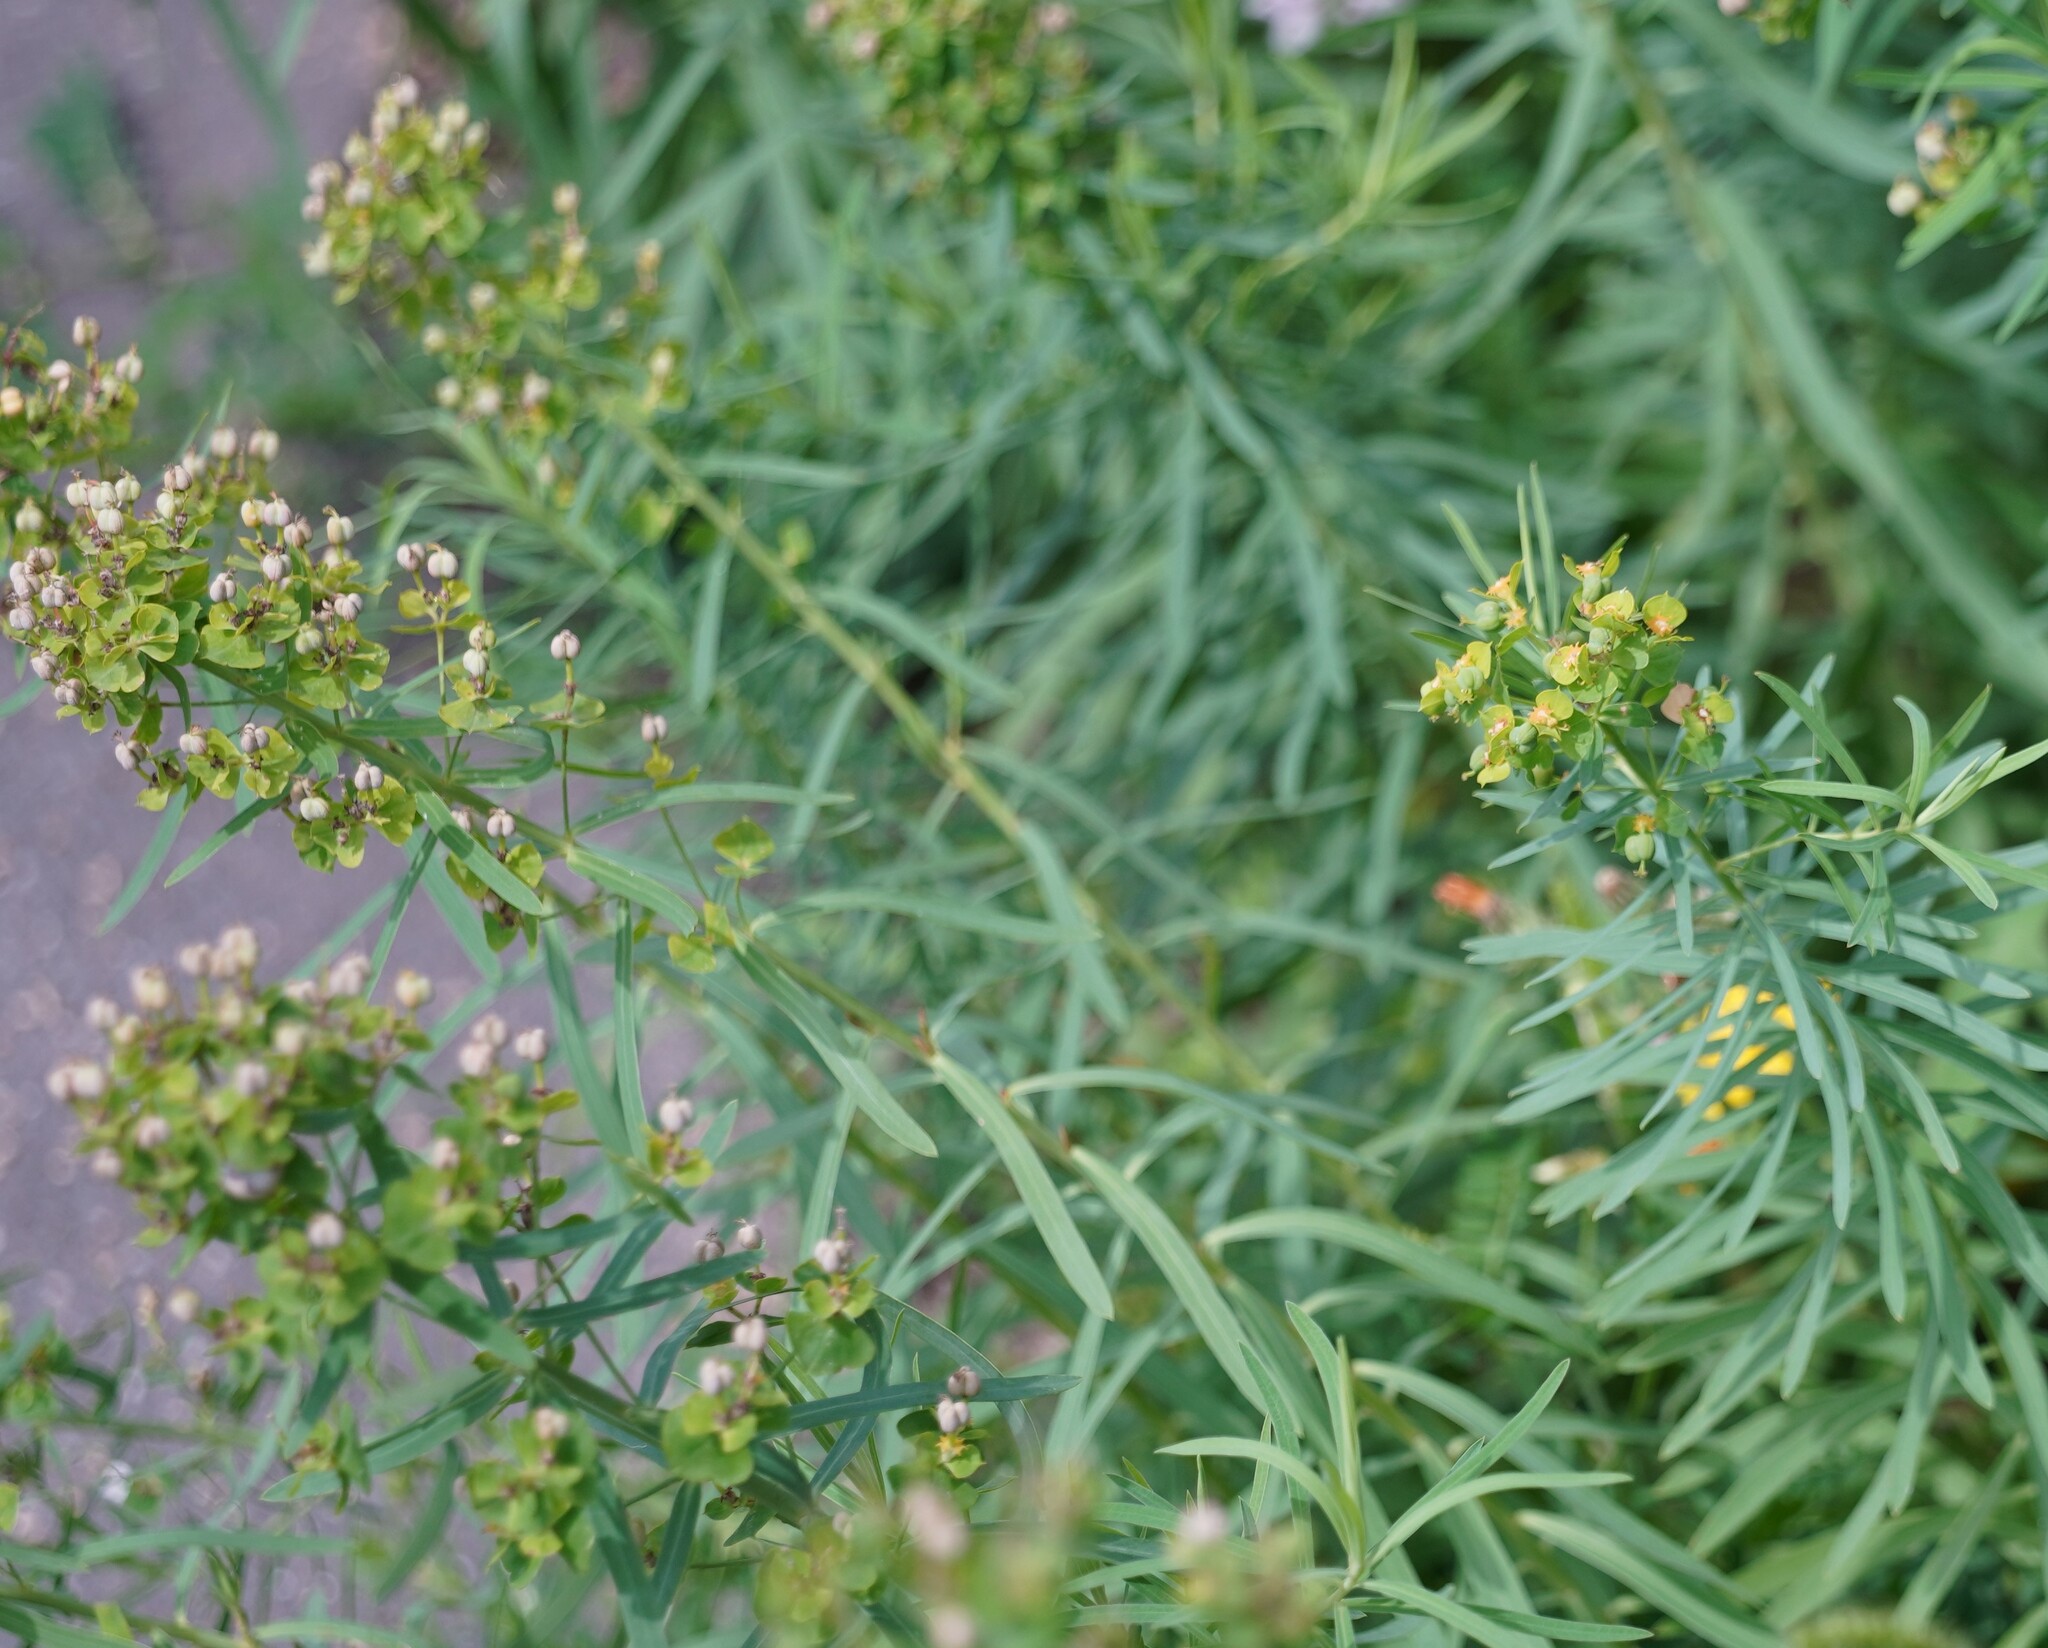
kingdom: Plantae
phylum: Tracheophyta
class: Magnoliopsida
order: Malpighiales
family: Euphorbiaceae
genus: Euphorbia
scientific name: Euphorbia esula
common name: Leafy spurge
